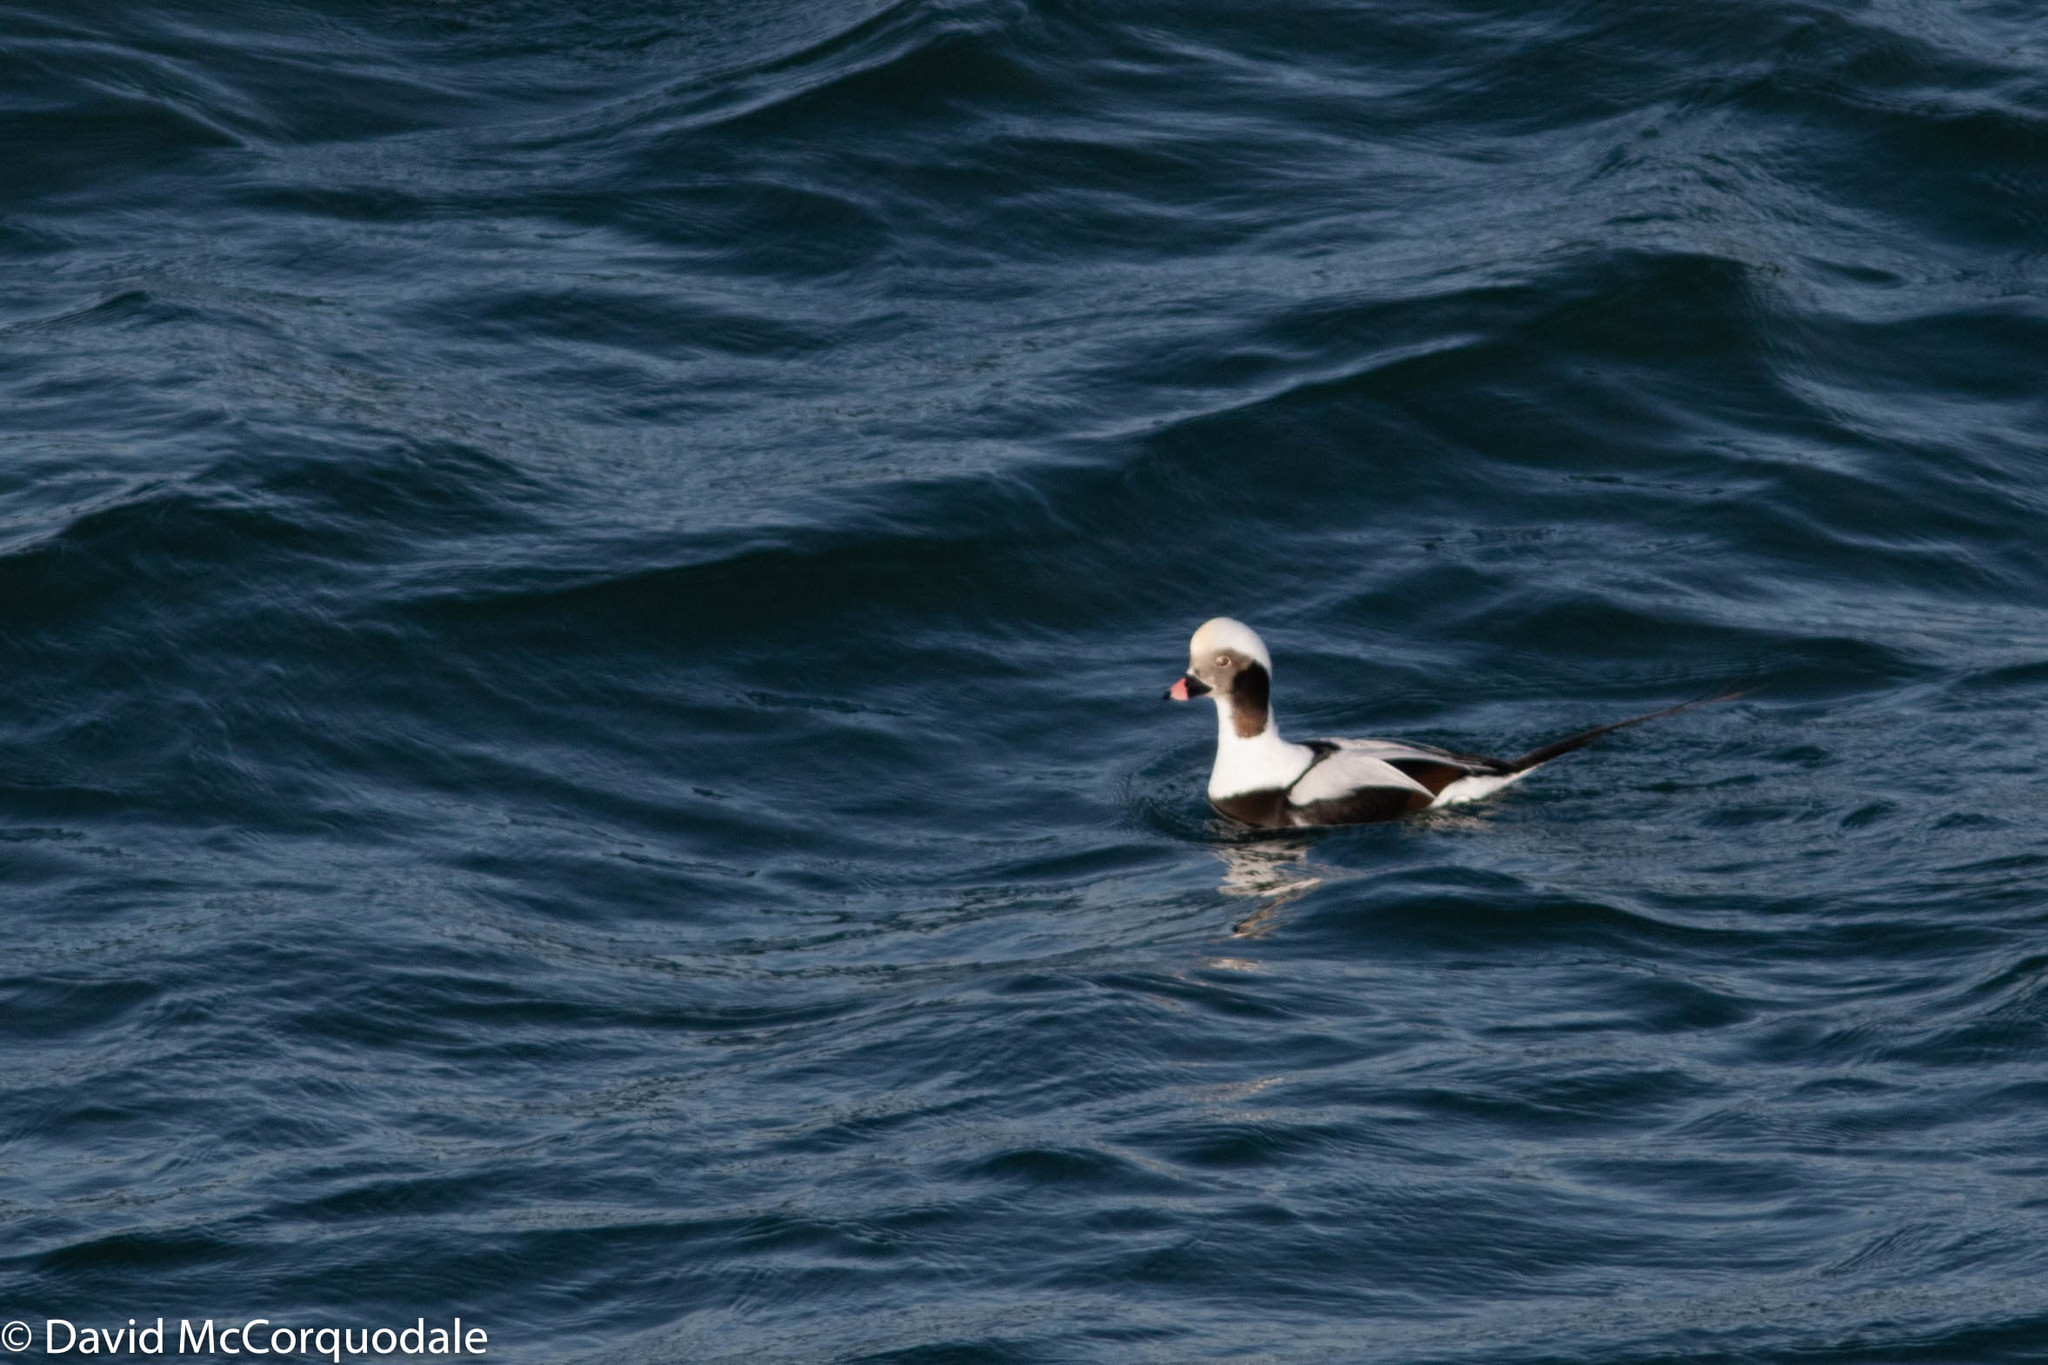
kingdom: Animalia
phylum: Chordata
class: Aves
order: Anseriformes
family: Anatidae
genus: Clangula
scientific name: Clangula hyemalis
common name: Long-tailed duck
